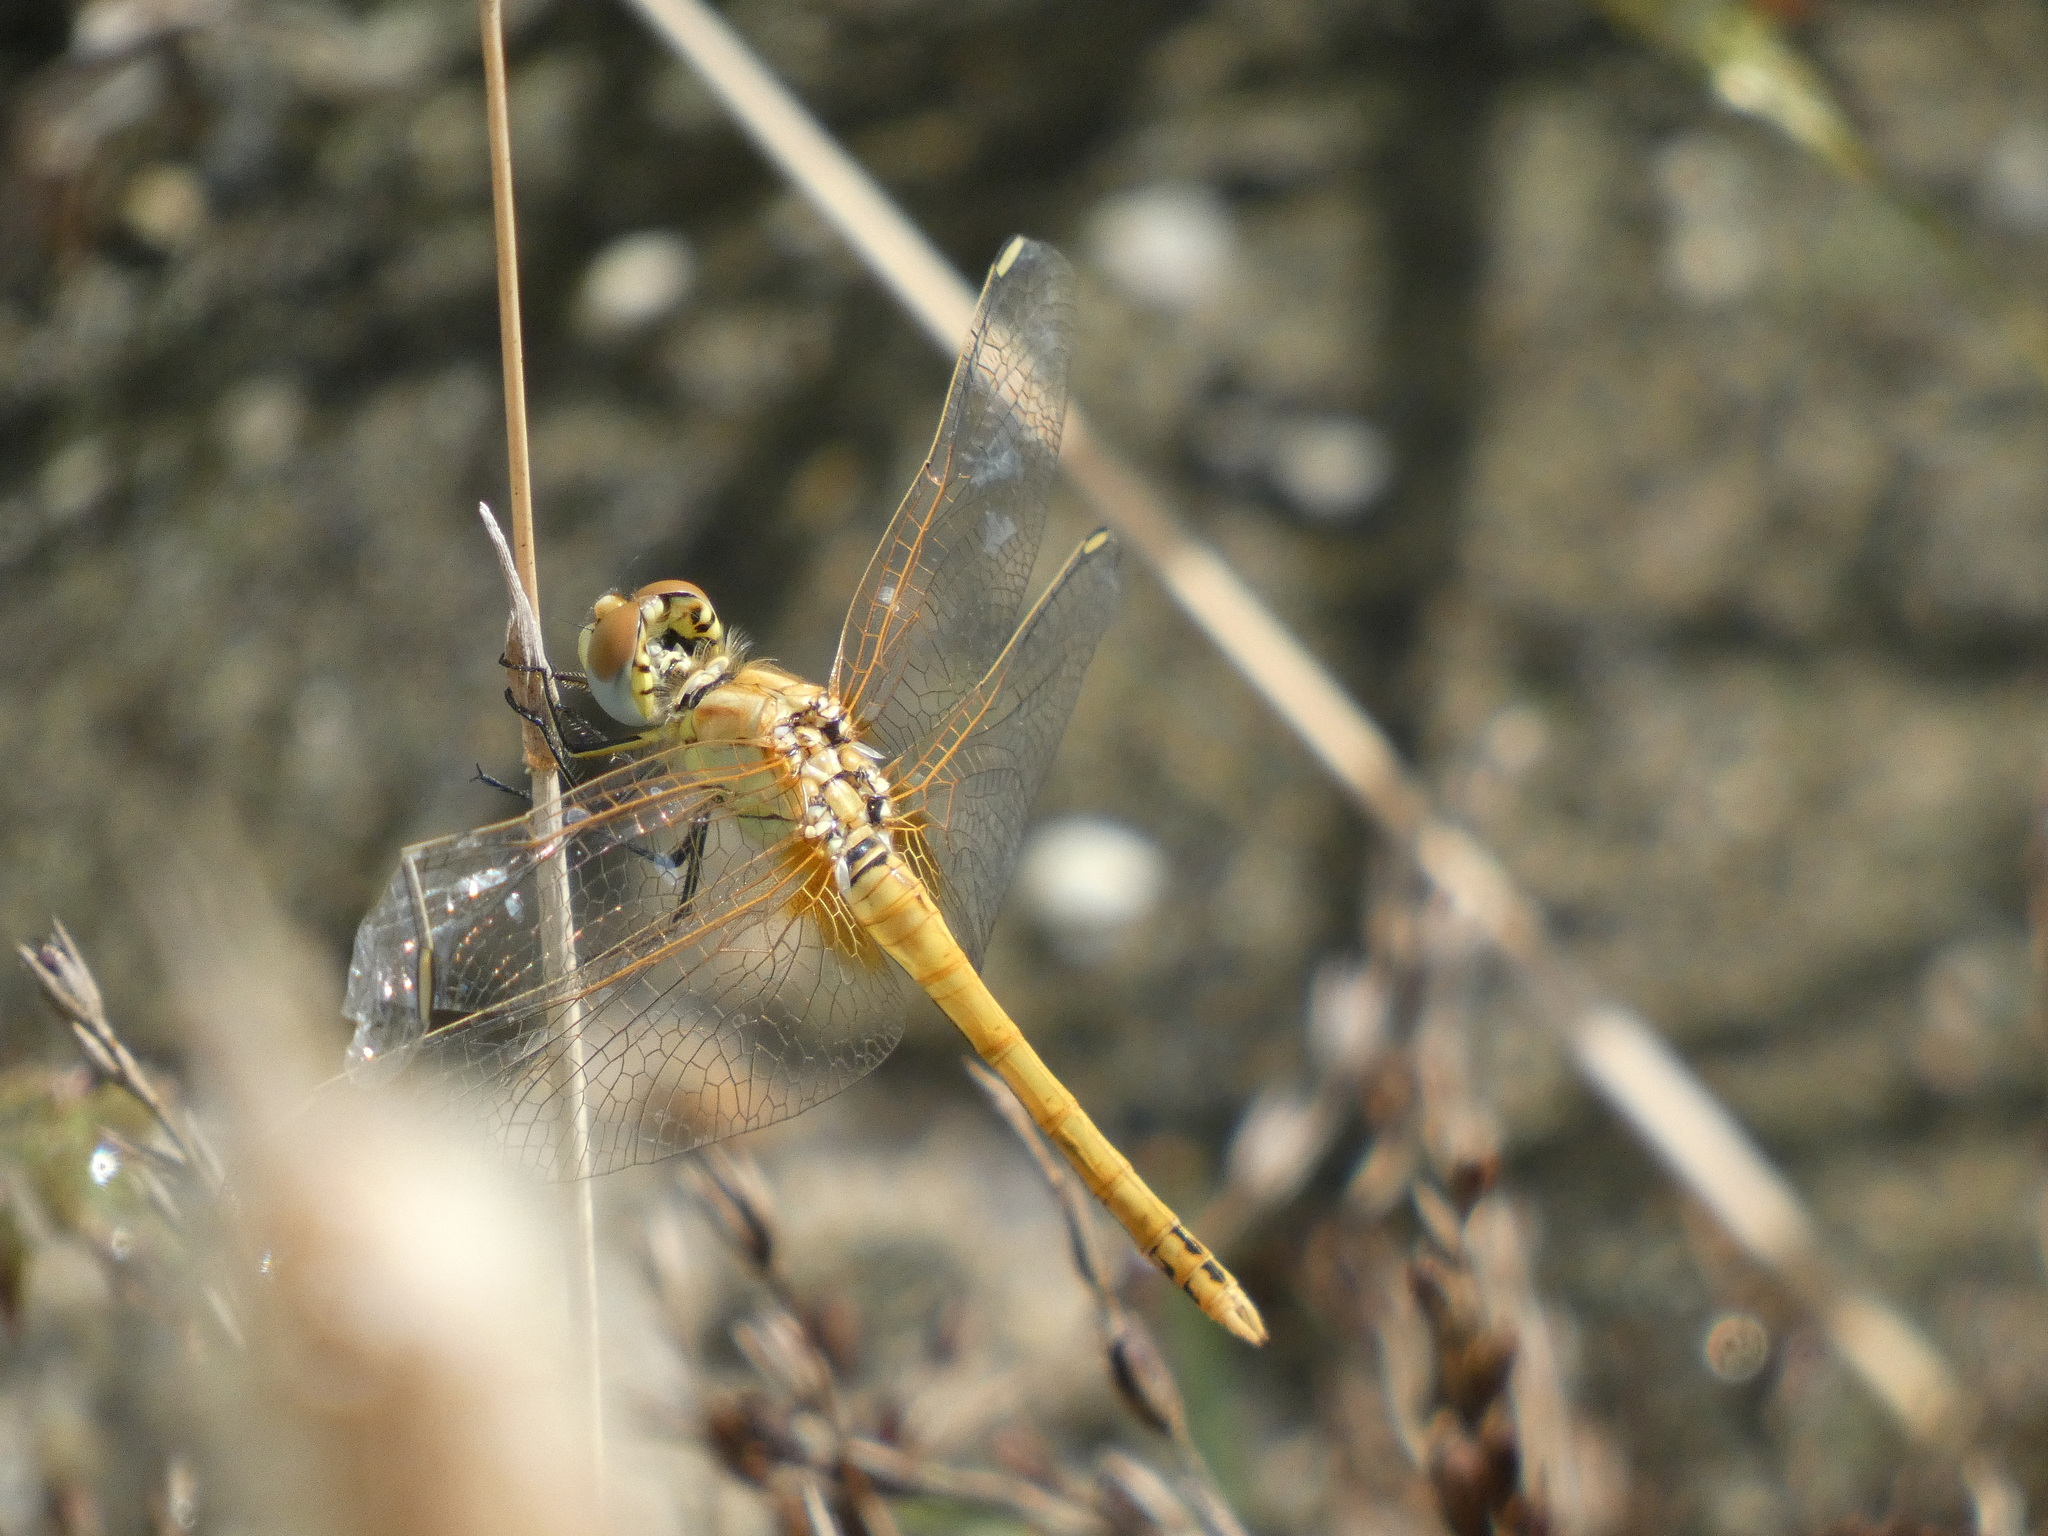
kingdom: Animalia
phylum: Arthropoda
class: Insecta
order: Odonata
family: Libellulidae
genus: Sympetrum
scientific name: Sympetrum fonscolombii
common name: Red-veined darter
